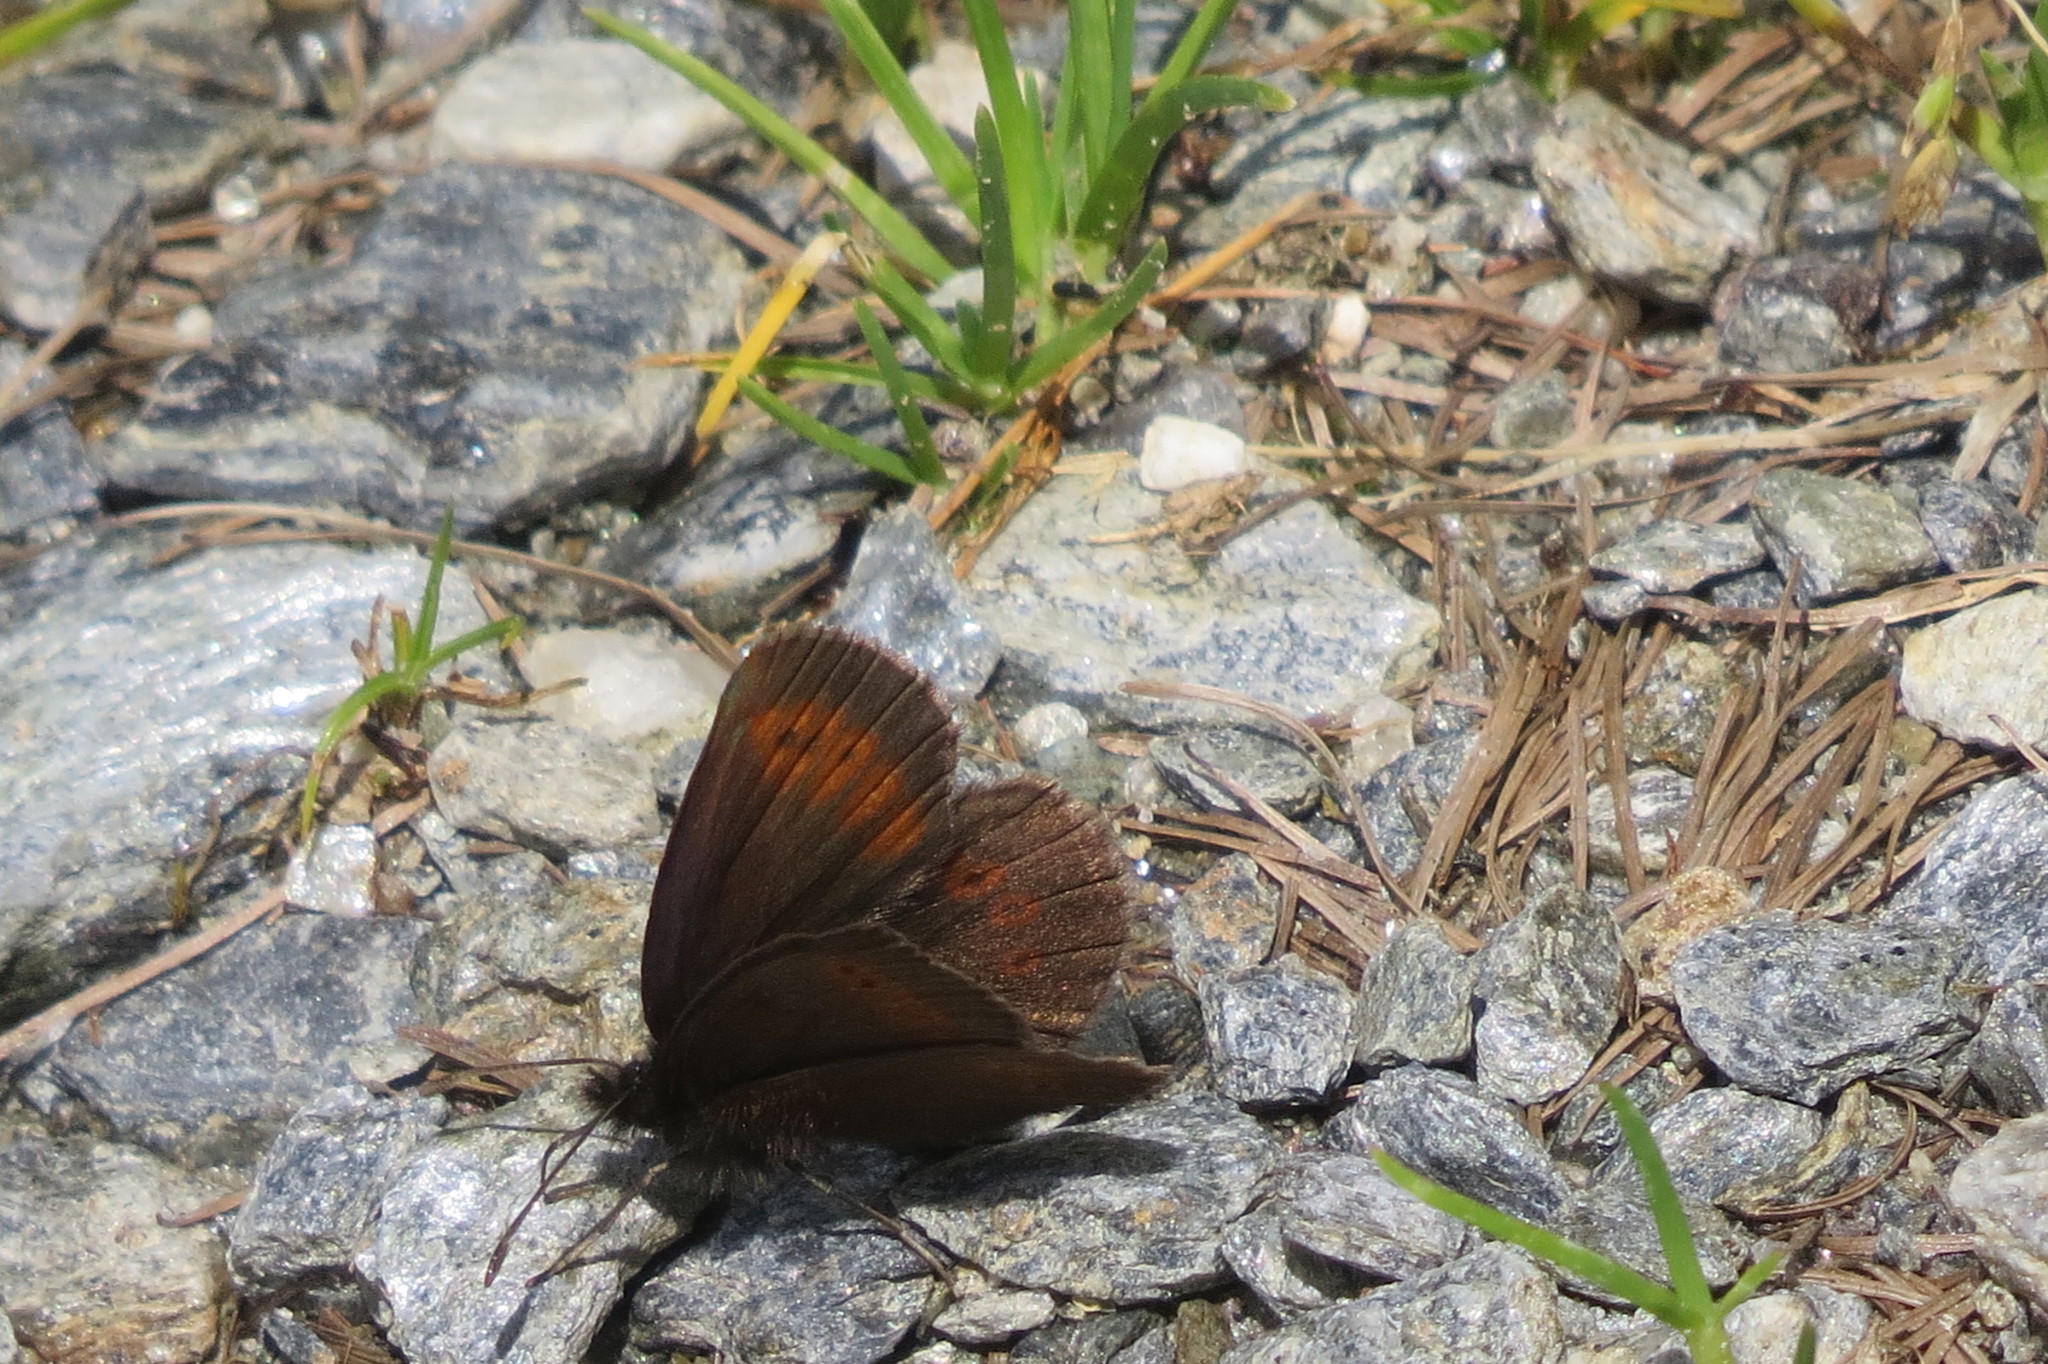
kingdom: Animalia
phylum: Arthropoda
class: Insecta
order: Lepidoptera
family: Nymphalidae
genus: Erebia
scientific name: Erebia melampus
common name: Lesser mountain ringlet
